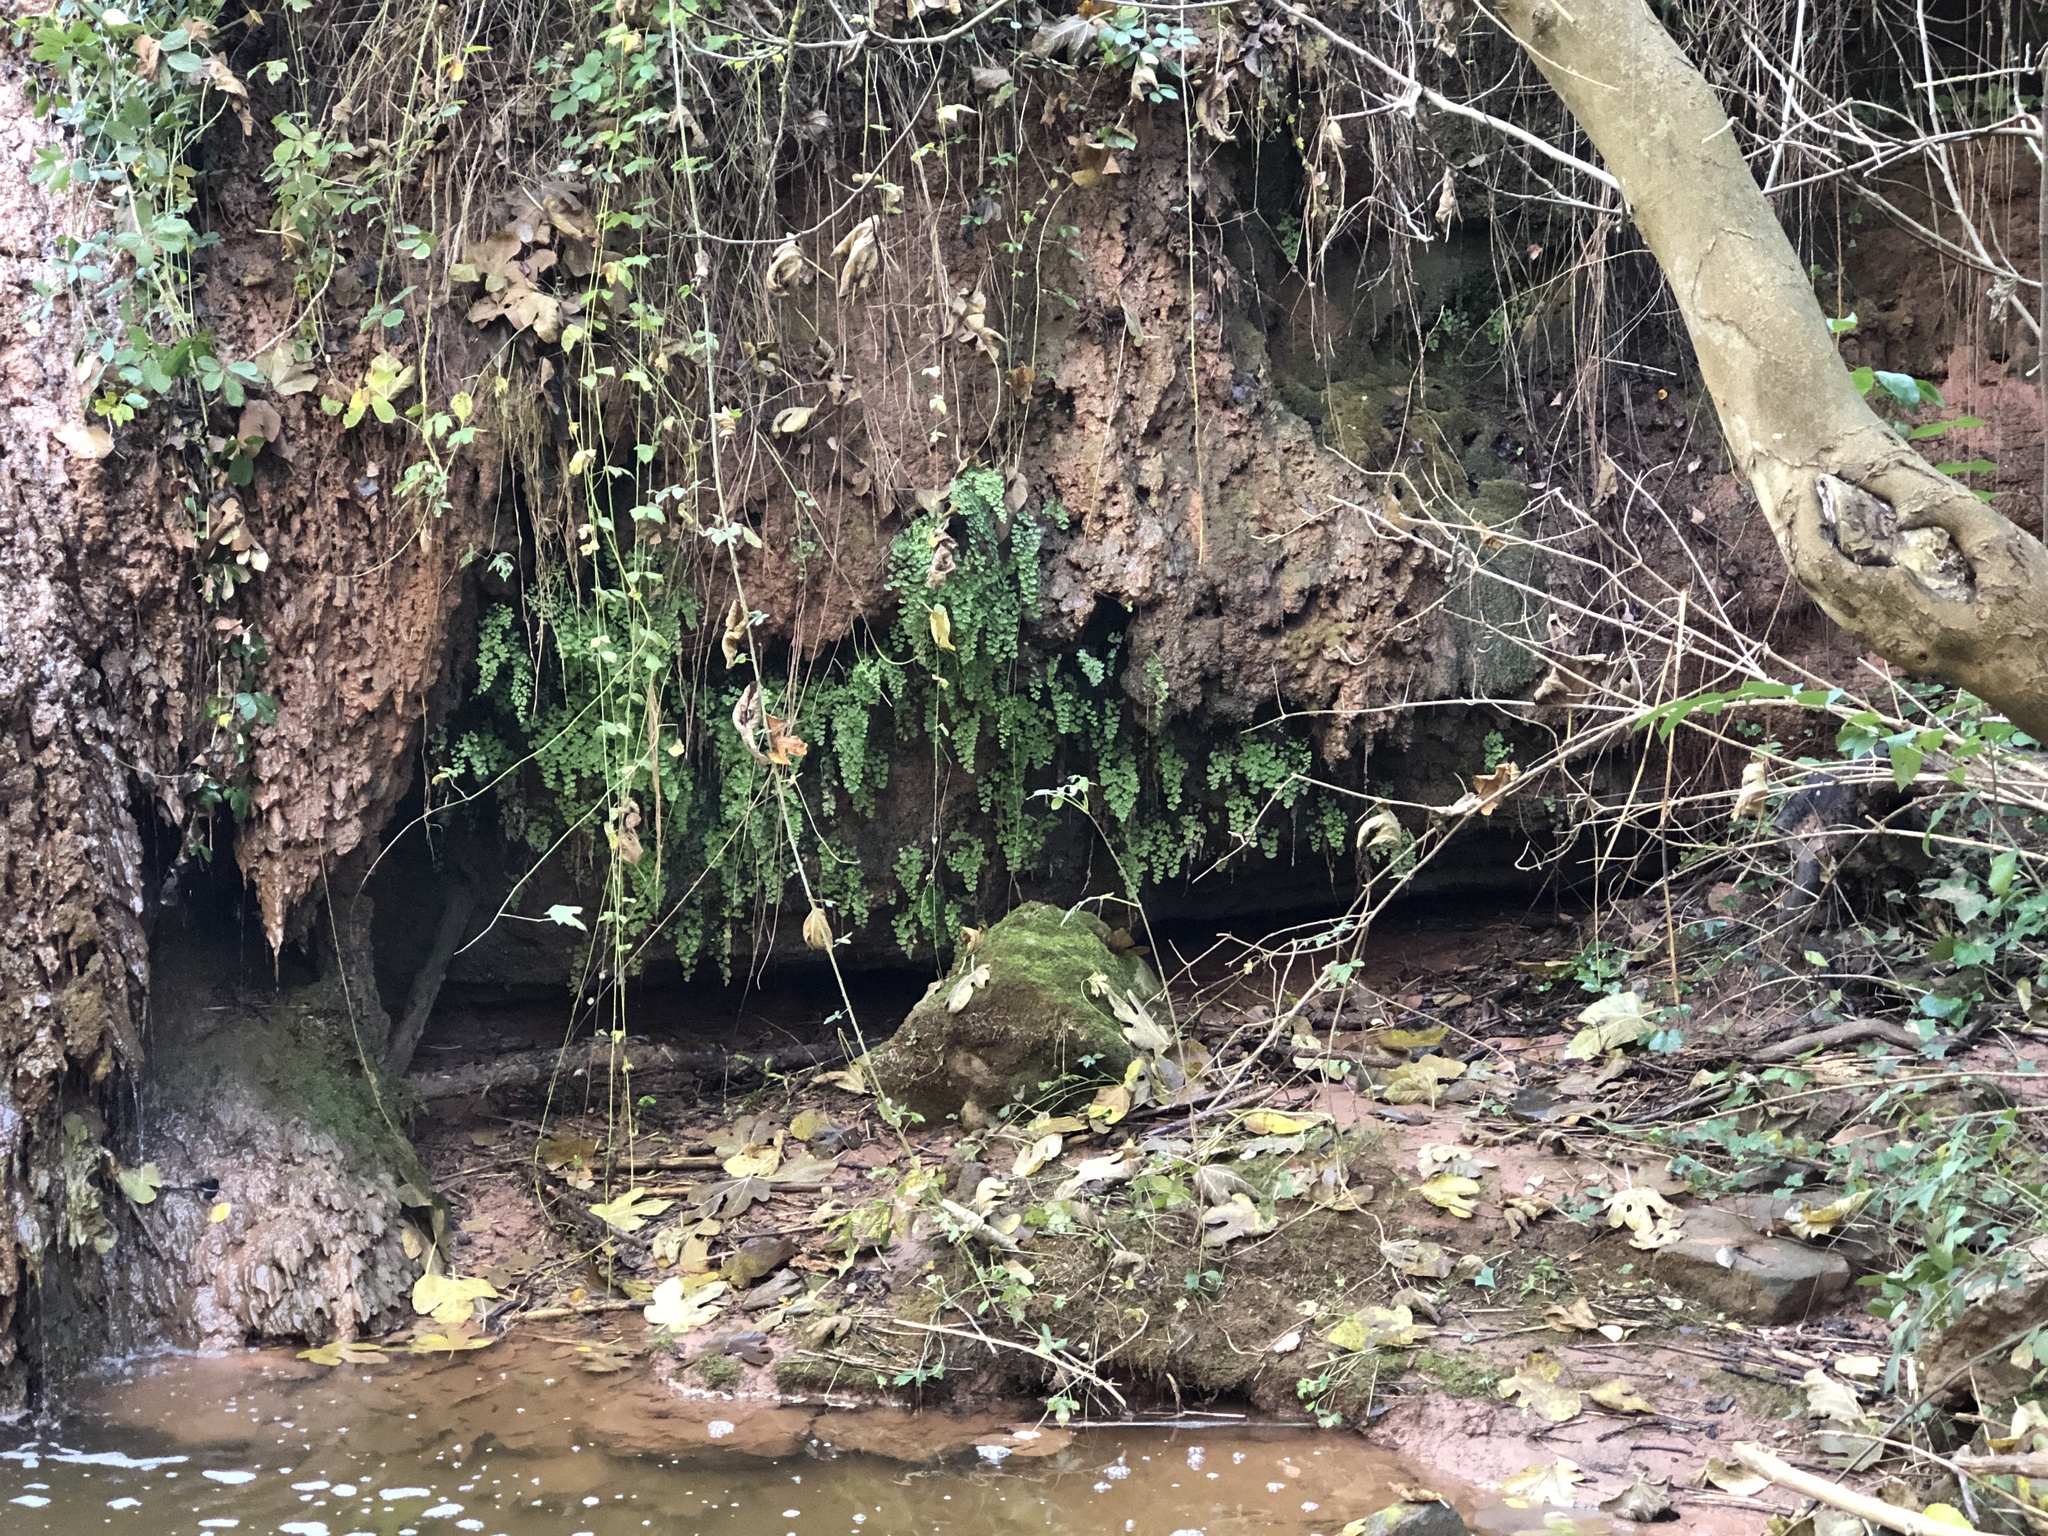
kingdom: Plantae
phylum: Tracheophyta
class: Polypodiopsida
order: Polypodiales
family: Pteridaceae
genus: Adiantum
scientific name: Adiantum capillus-veneris
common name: Maidenhair fern
